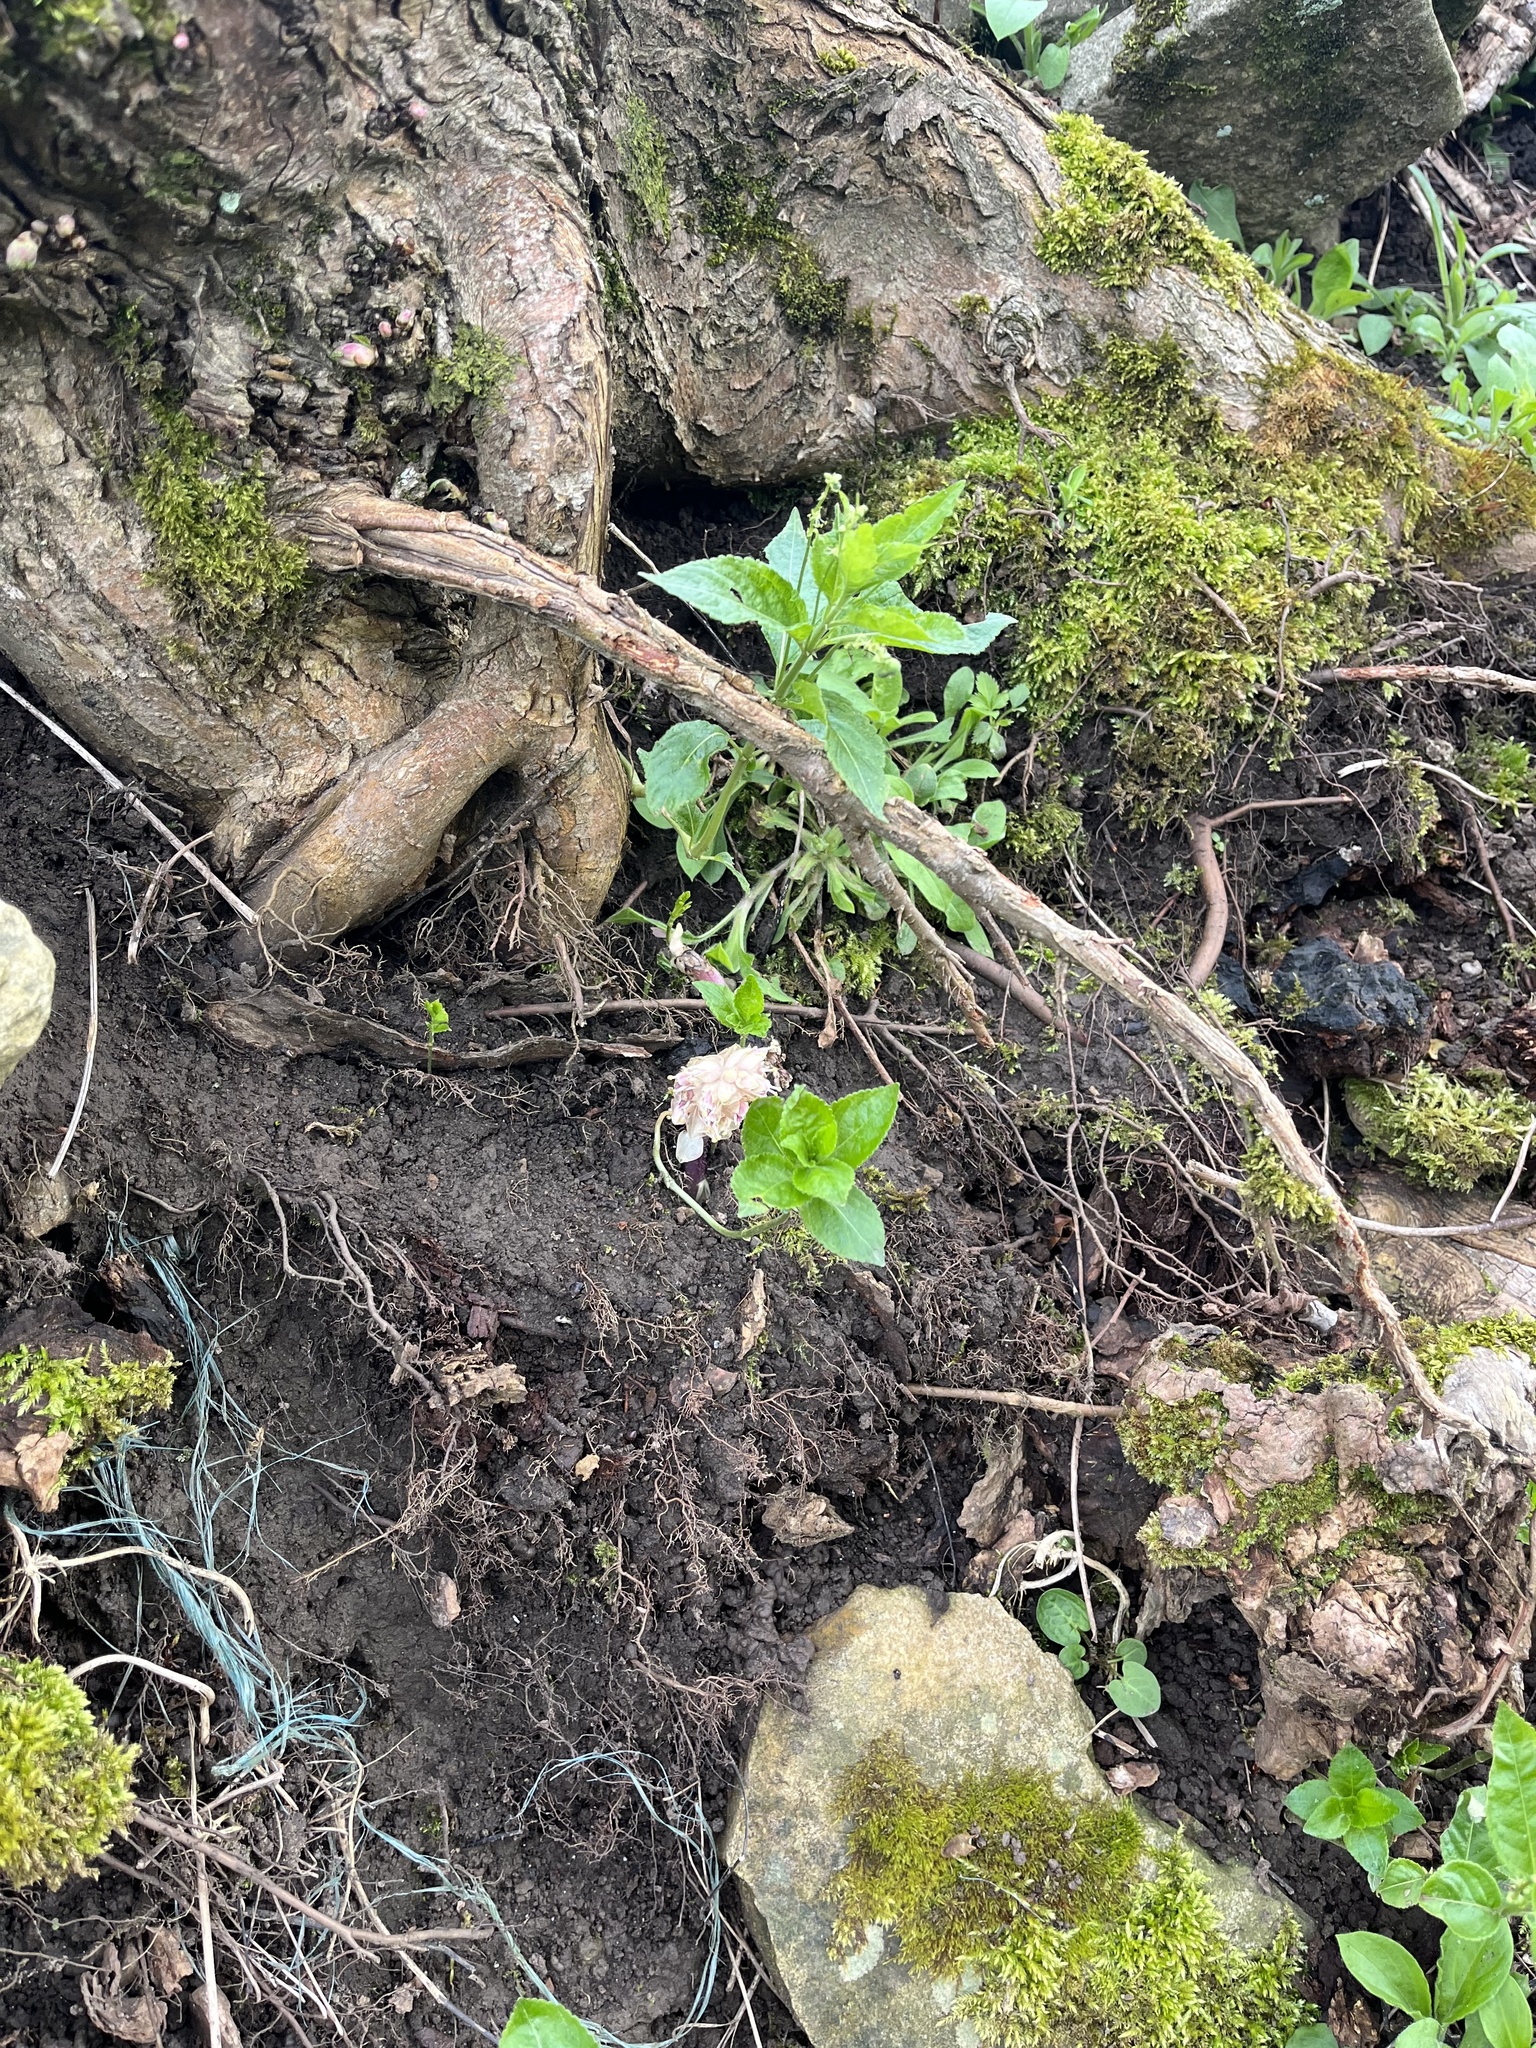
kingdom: Plantae
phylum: Tracheophyta
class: Magnoliopsida
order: Lamiales
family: Orobanchaceae
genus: Lathraea
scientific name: Lathraea squamaria
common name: Toothwort
